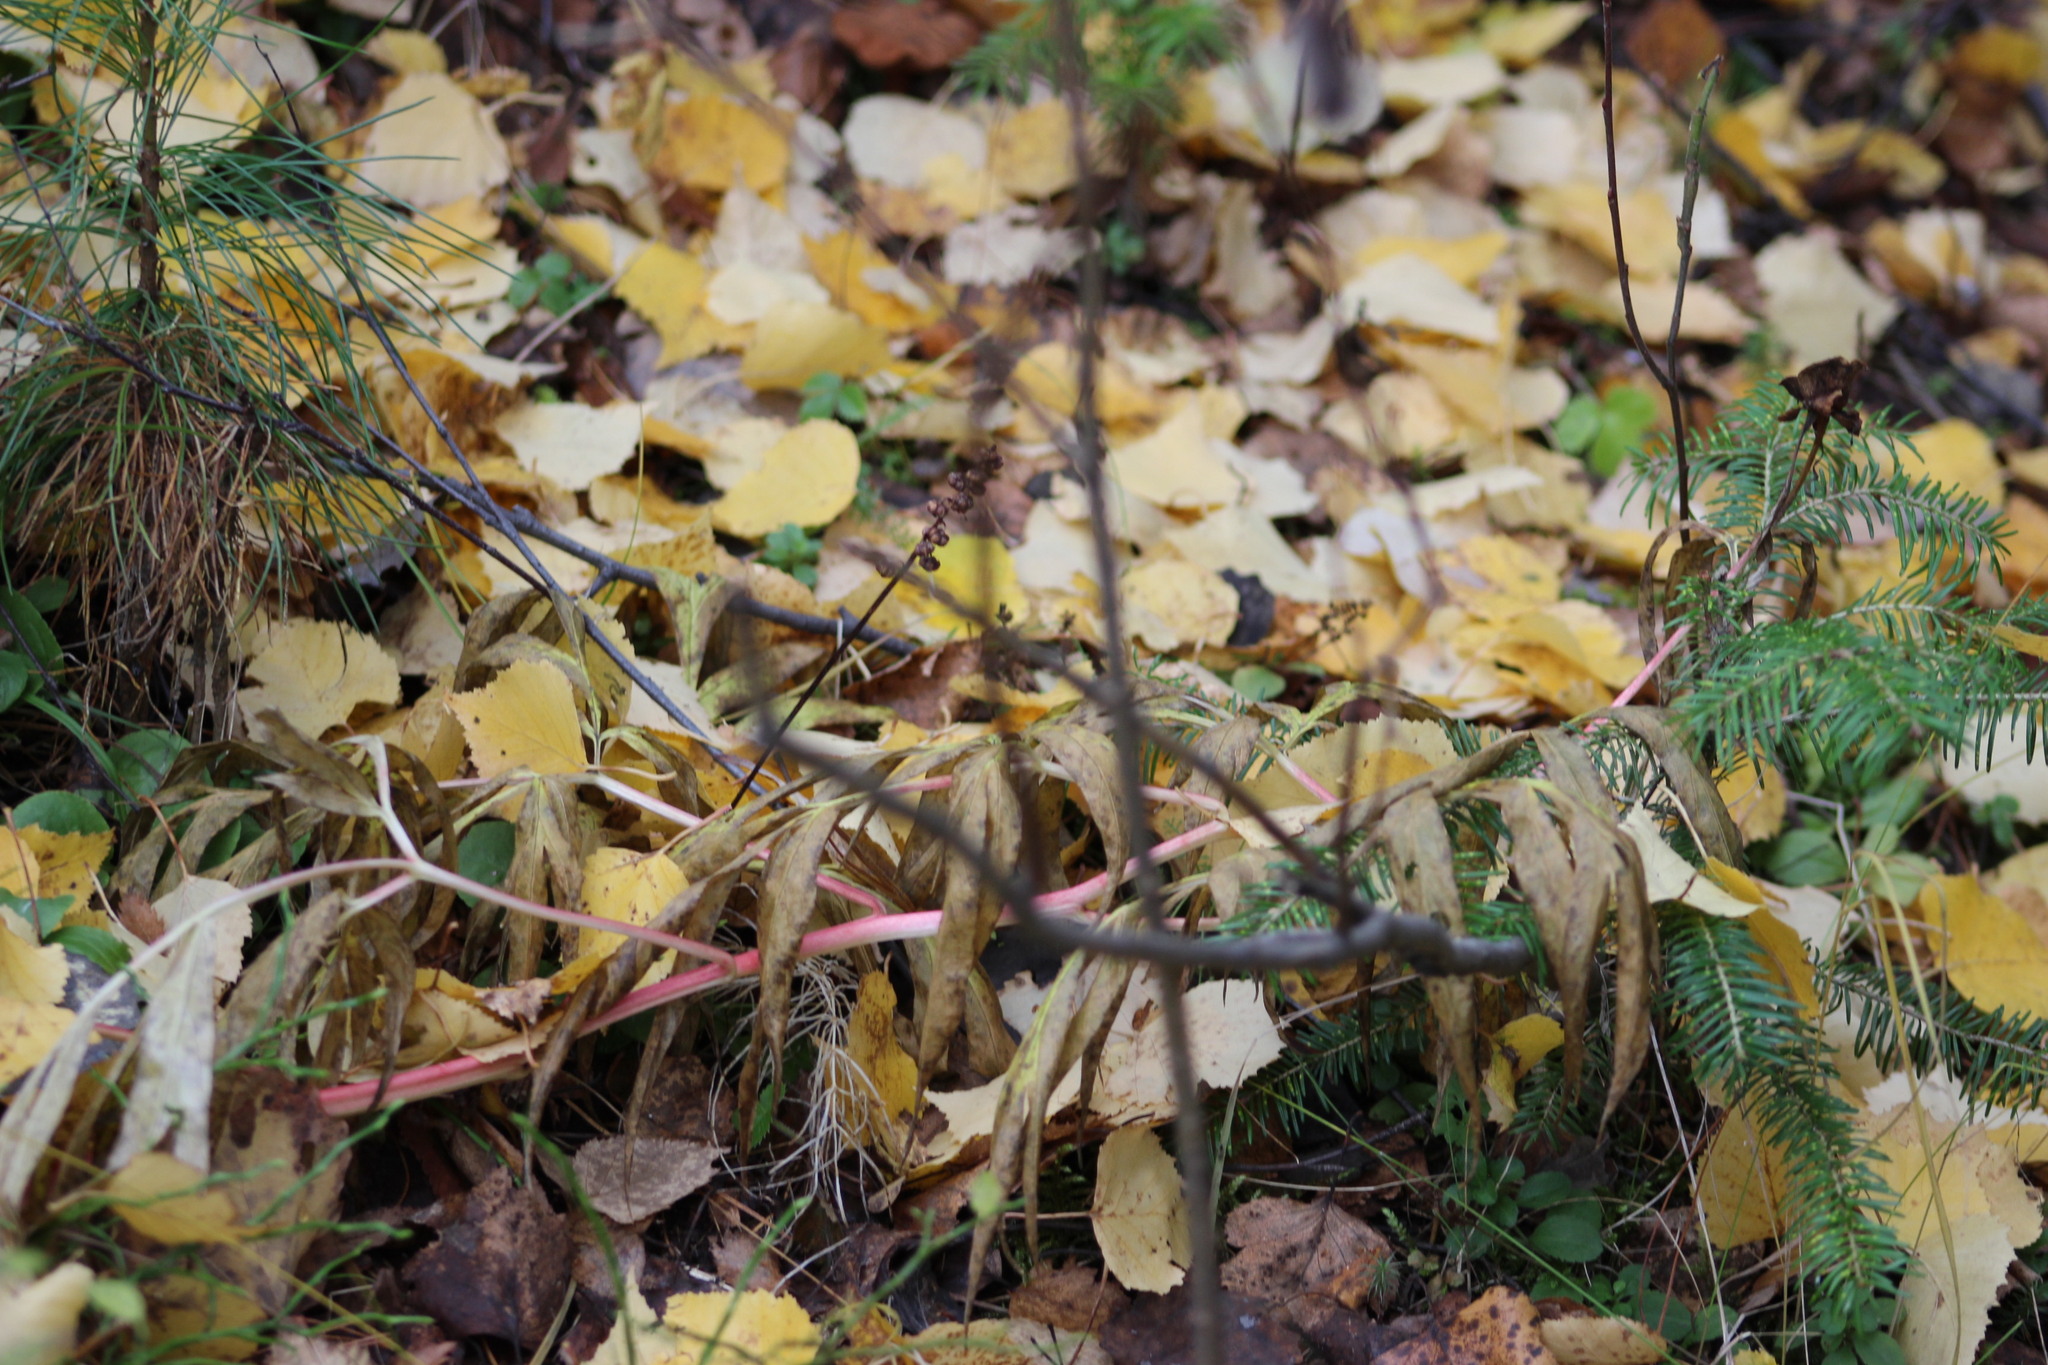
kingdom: Plantae
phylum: Tracheophyta
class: Magnoliopsida
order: Saxifragales
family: Paeoniaceae
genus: Paeonia
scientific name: Paeonia anomala
